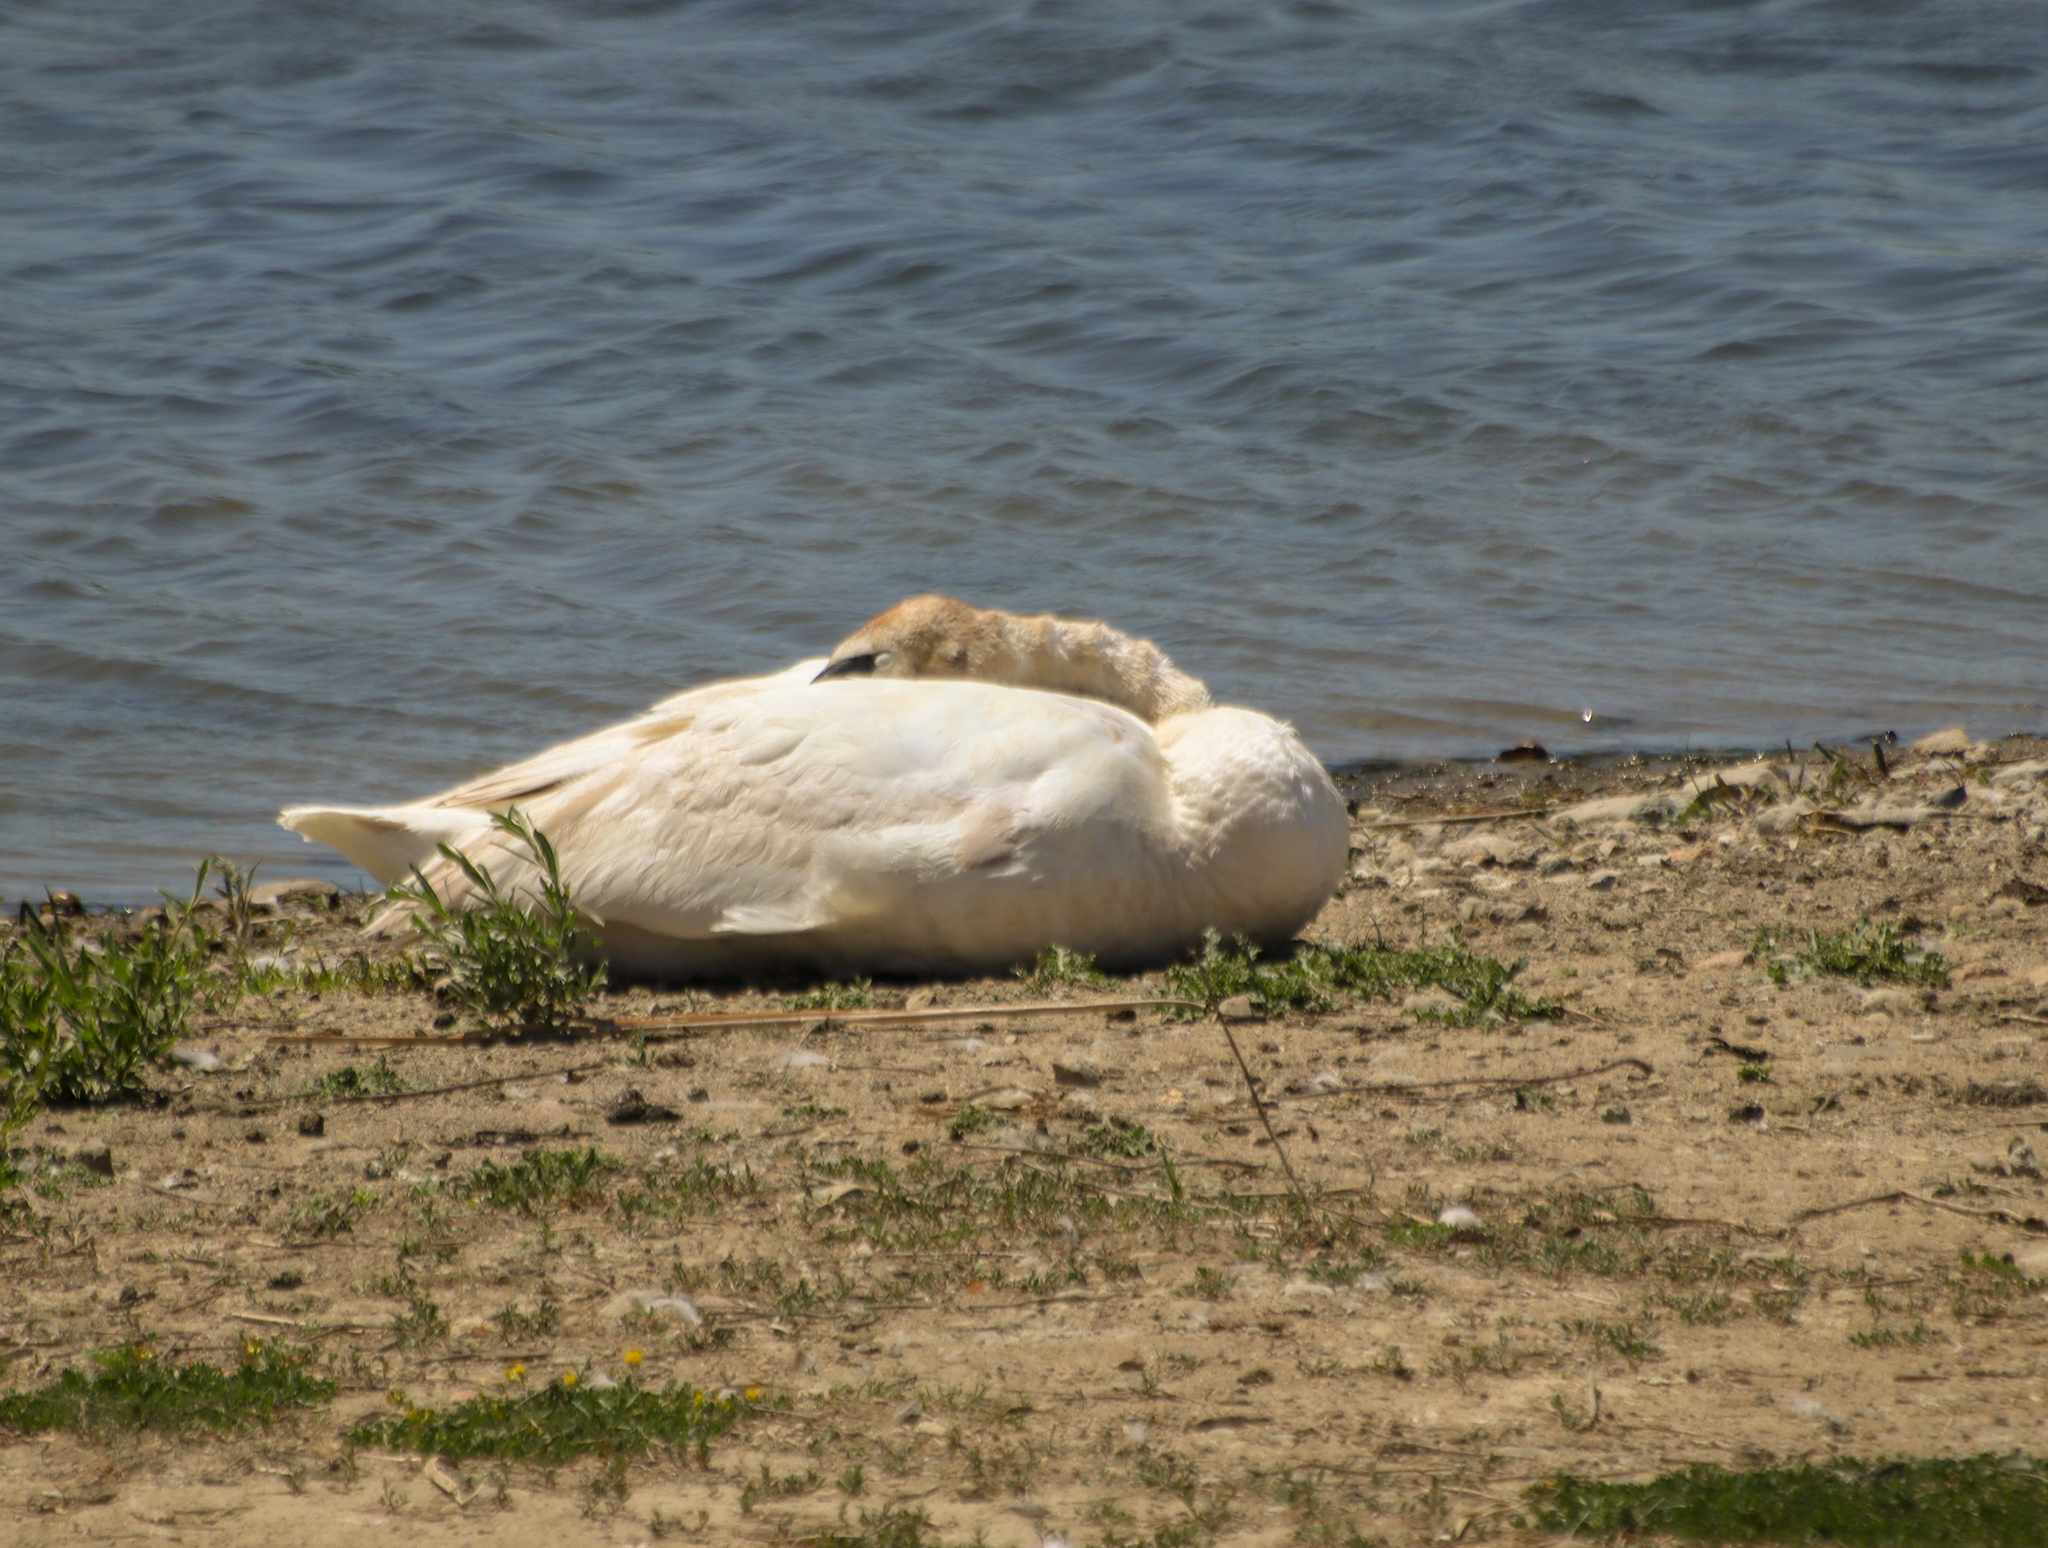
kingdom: Animalia
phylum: Chordata
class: Aves
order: Anseriformes
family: Anatidae
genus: Cygnus
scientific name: Cygnus buccinator
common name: Trumpeter swan
